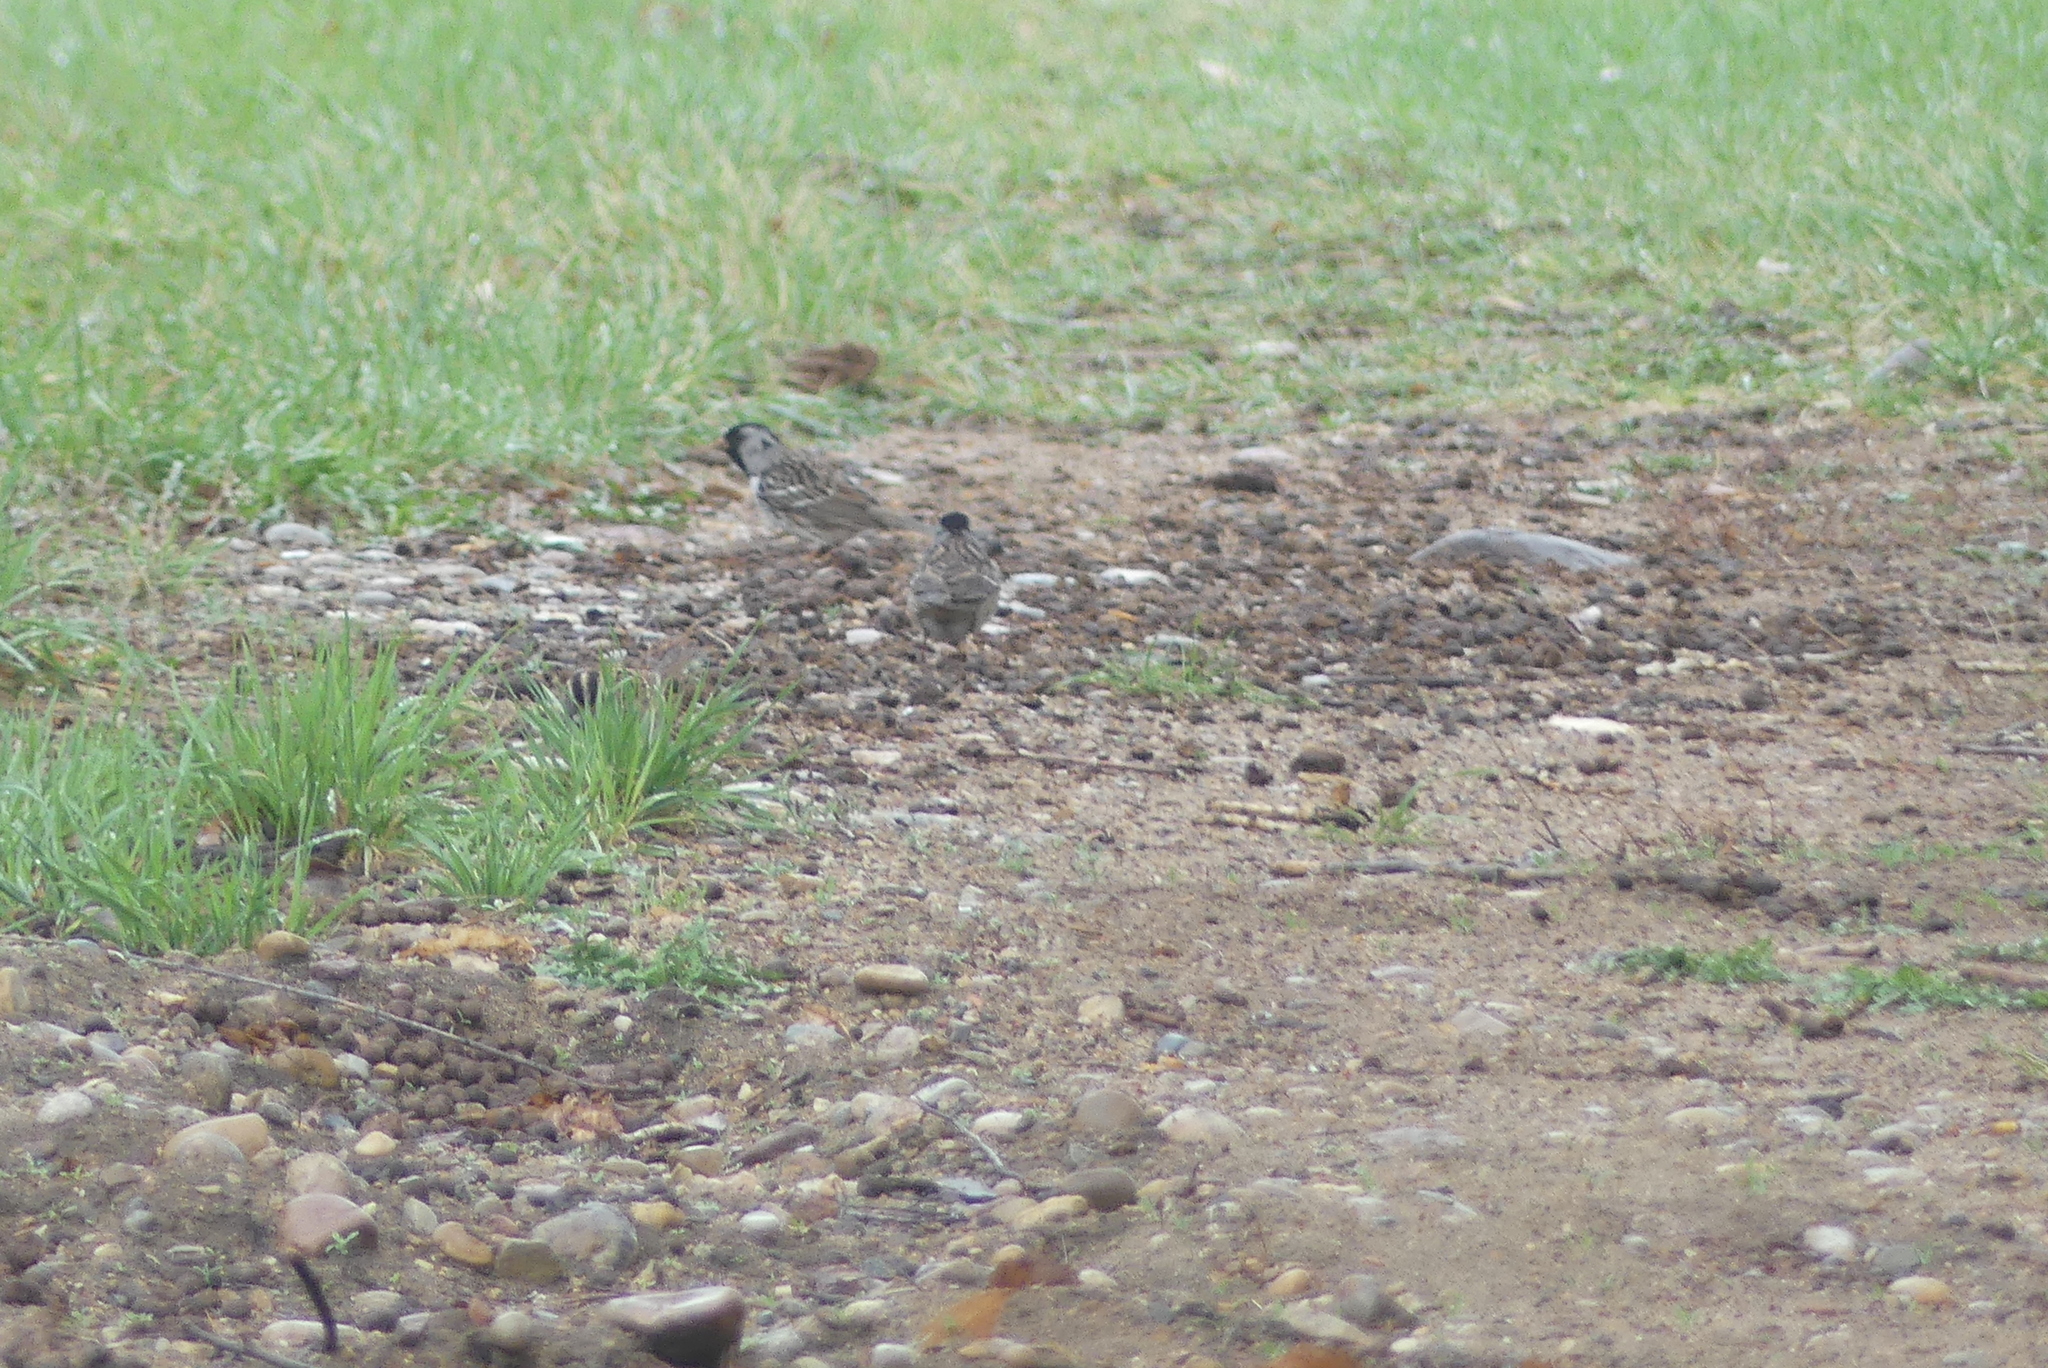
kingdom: Animalia
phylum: Chordata
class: Aves
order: Passeriformes
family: Passerellidae
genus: Zonotrichia
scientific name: Zonotrichia querula
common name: Harris's sparrow
